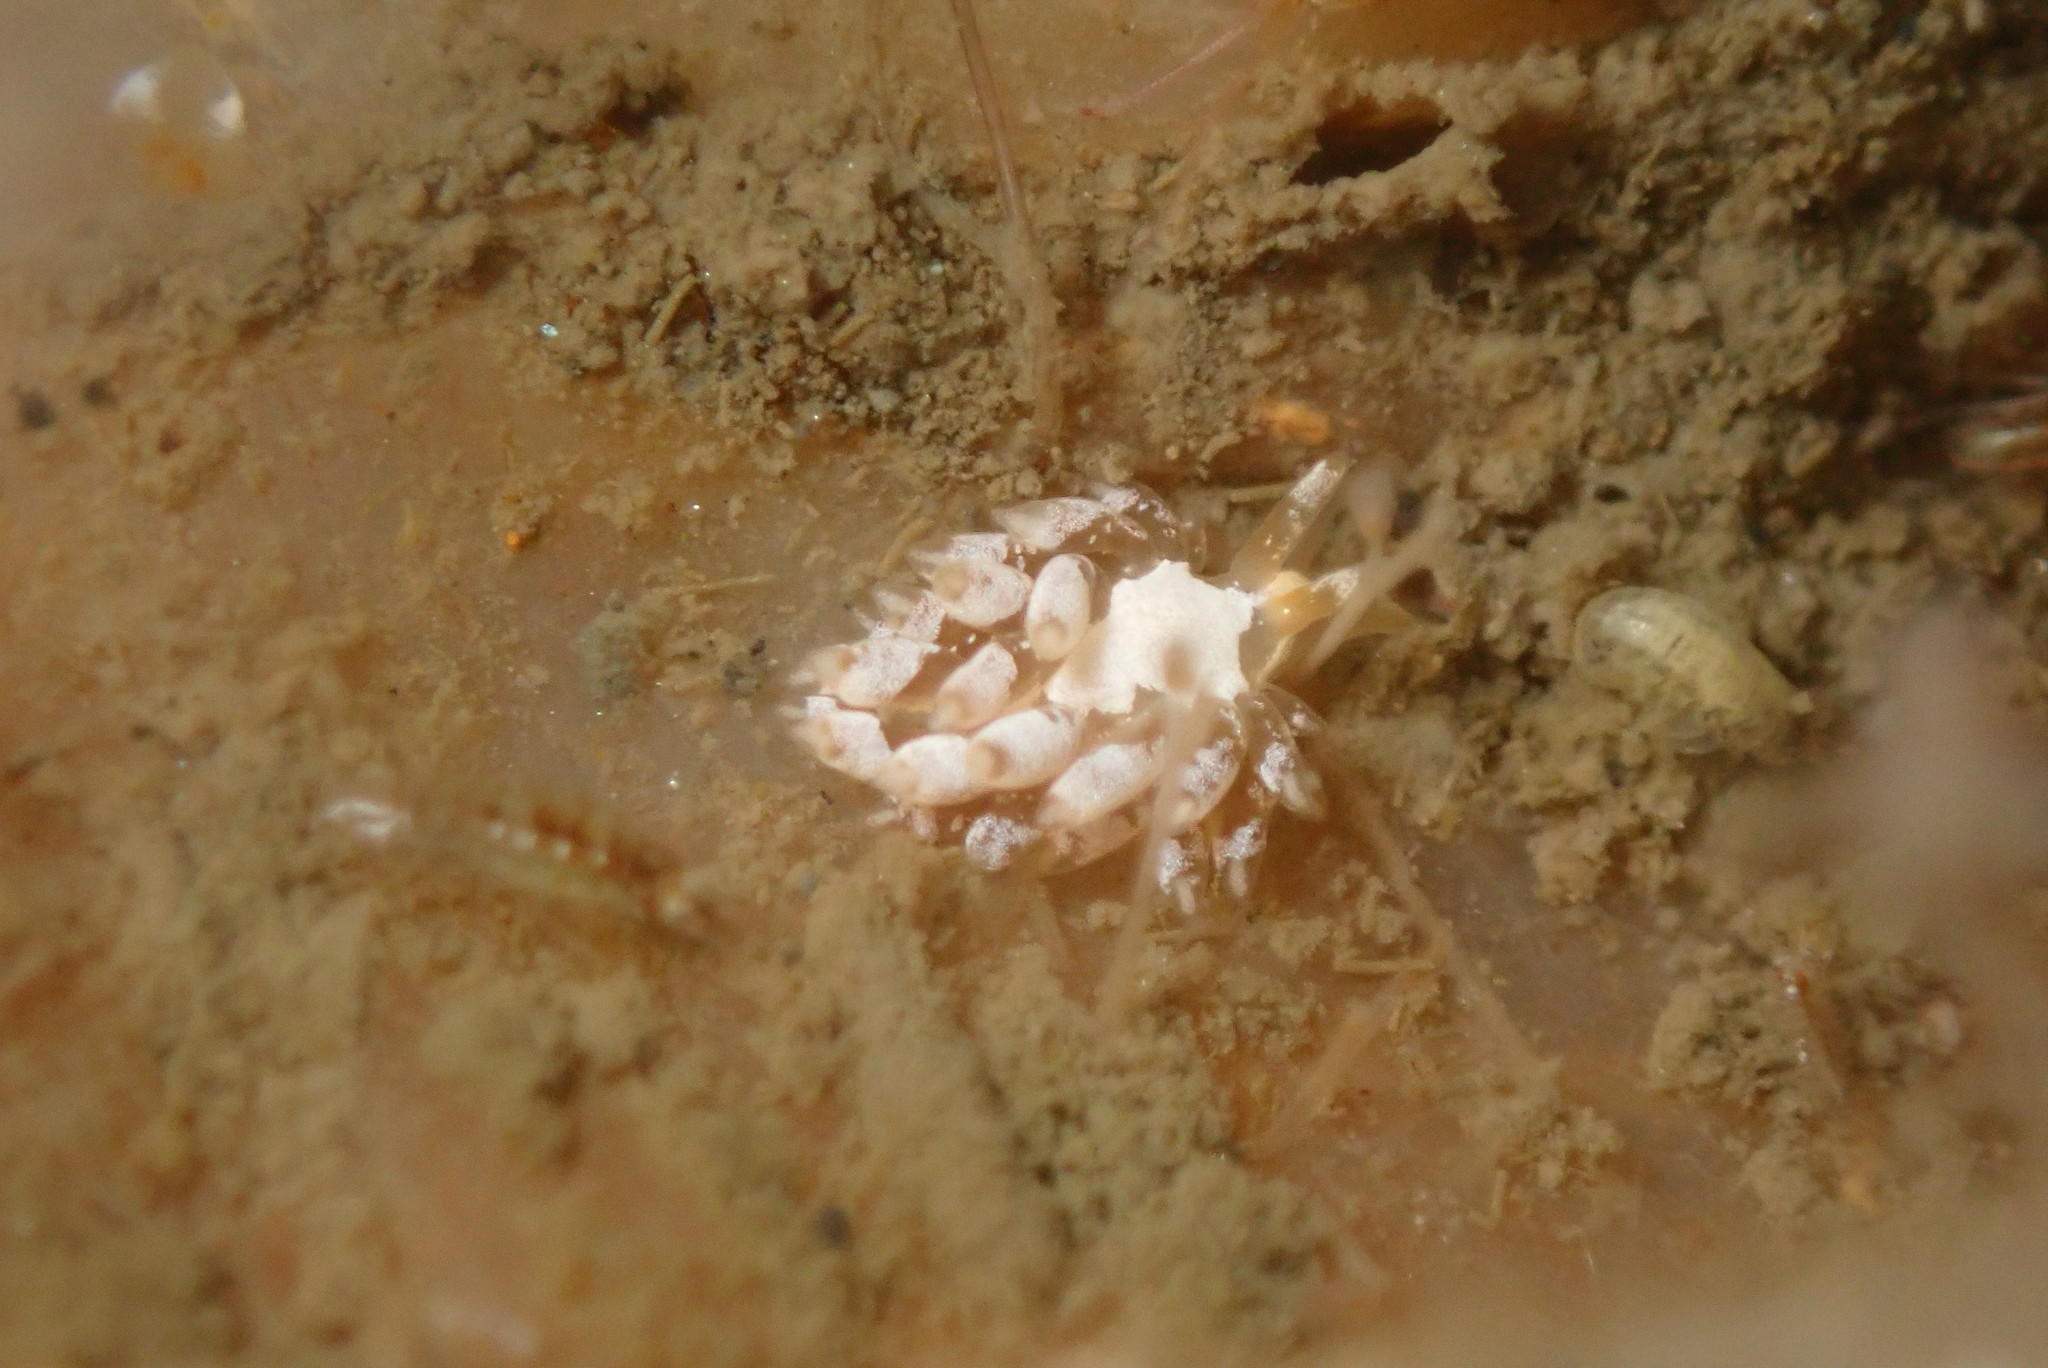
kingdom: Animalia
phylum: Mollusca
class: Gastropoda
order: Nudibranchia
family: Trinchesiidae
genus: Trinchesia
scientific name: Trinchesia albocrusta
